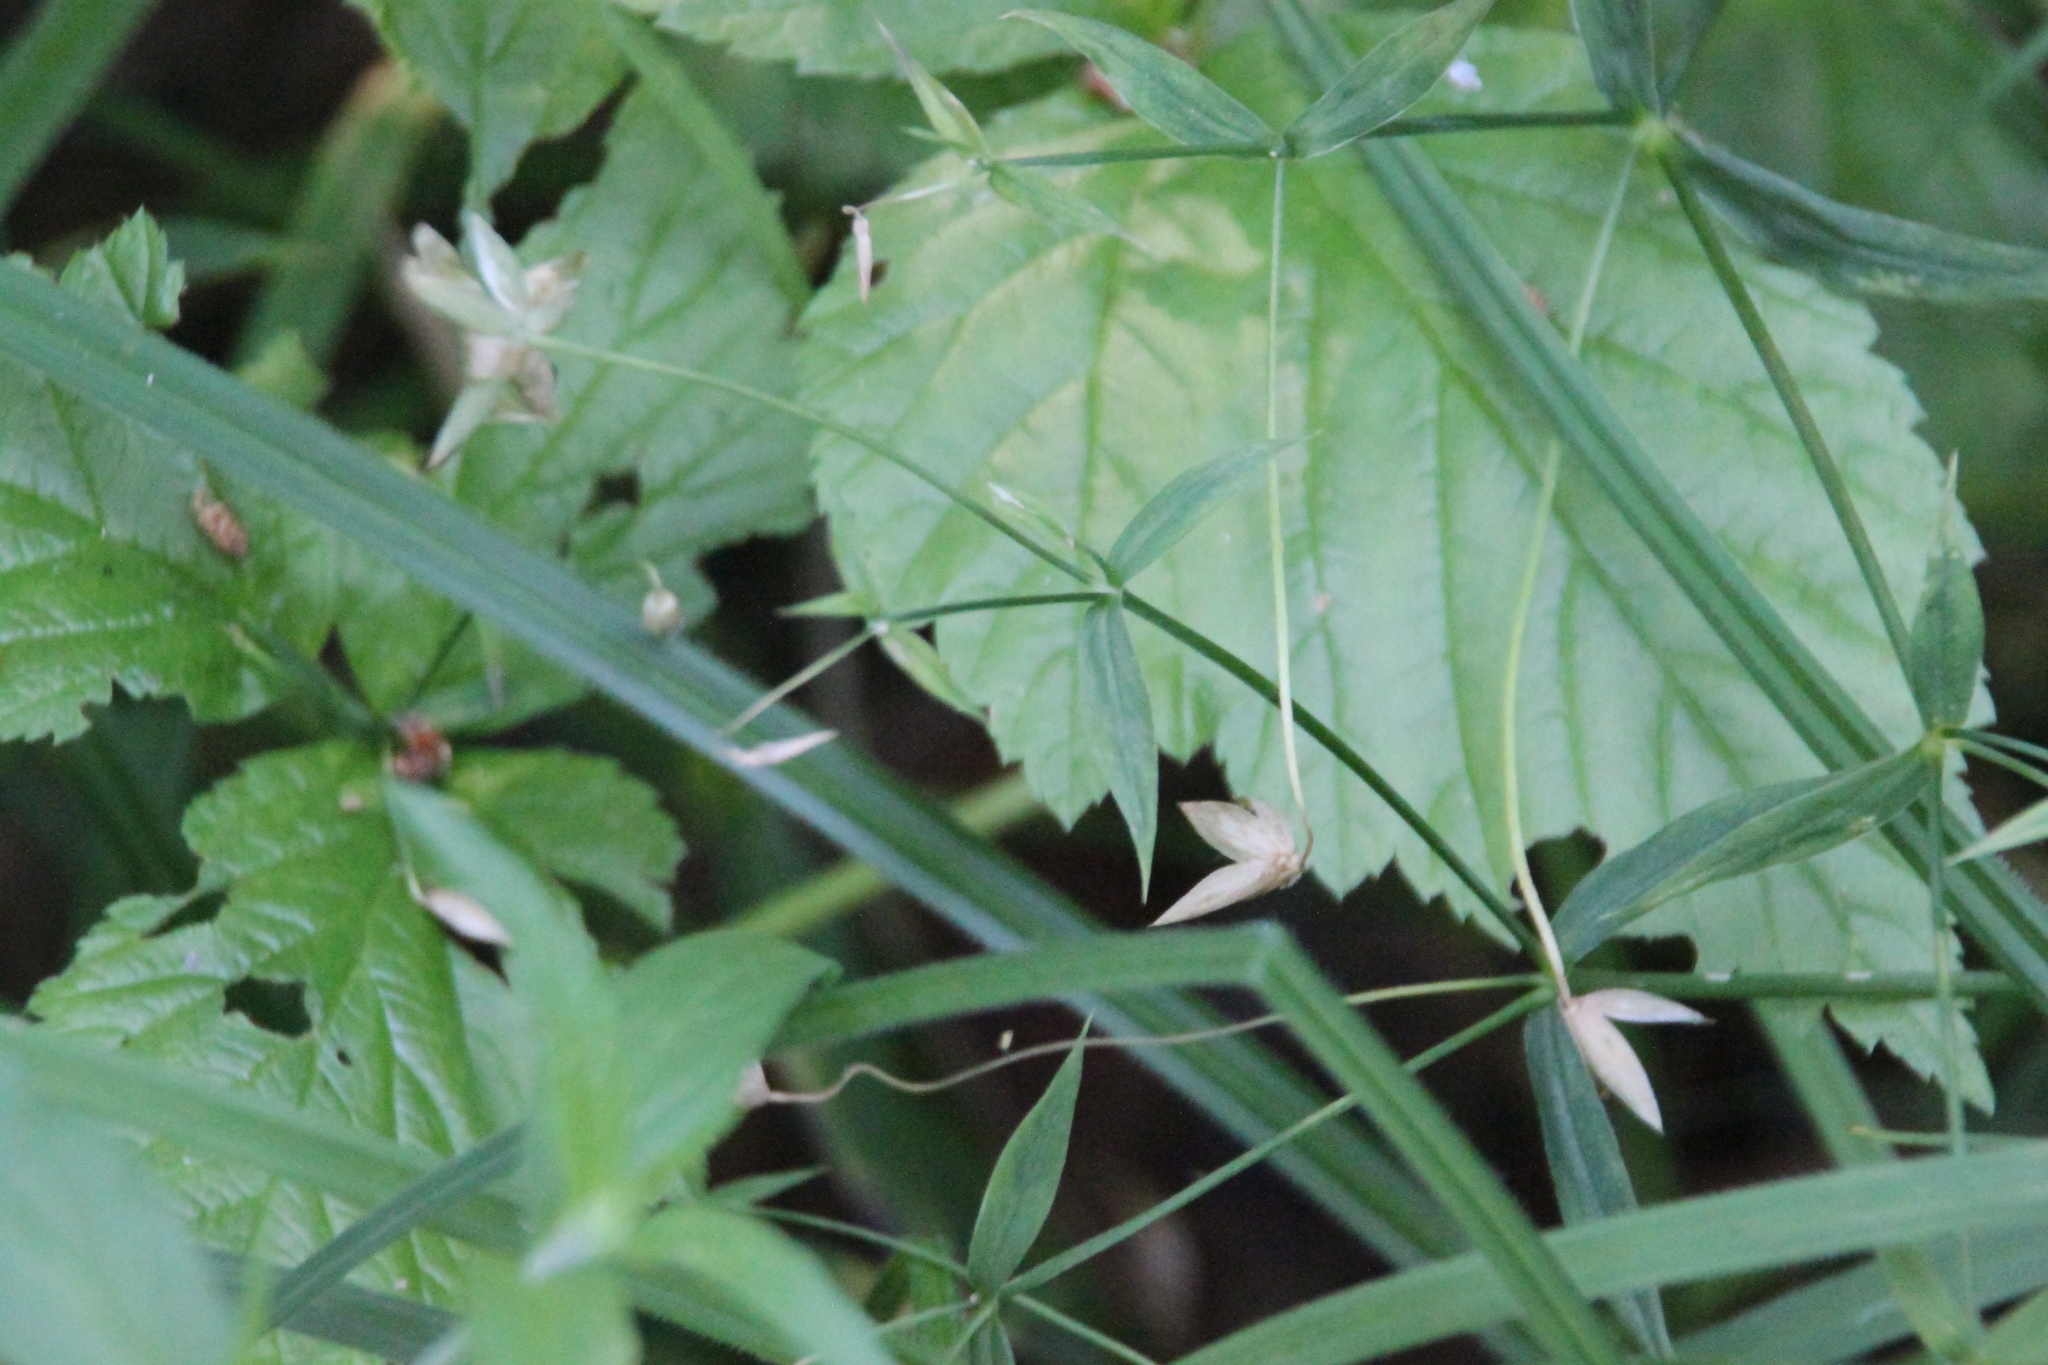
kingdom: Plantae
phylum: Tracheophyta
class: Magnoliopsida
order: Caryophyllales
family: Caryophyllaceae
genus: Rabelera
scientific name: Rabelera holostea
